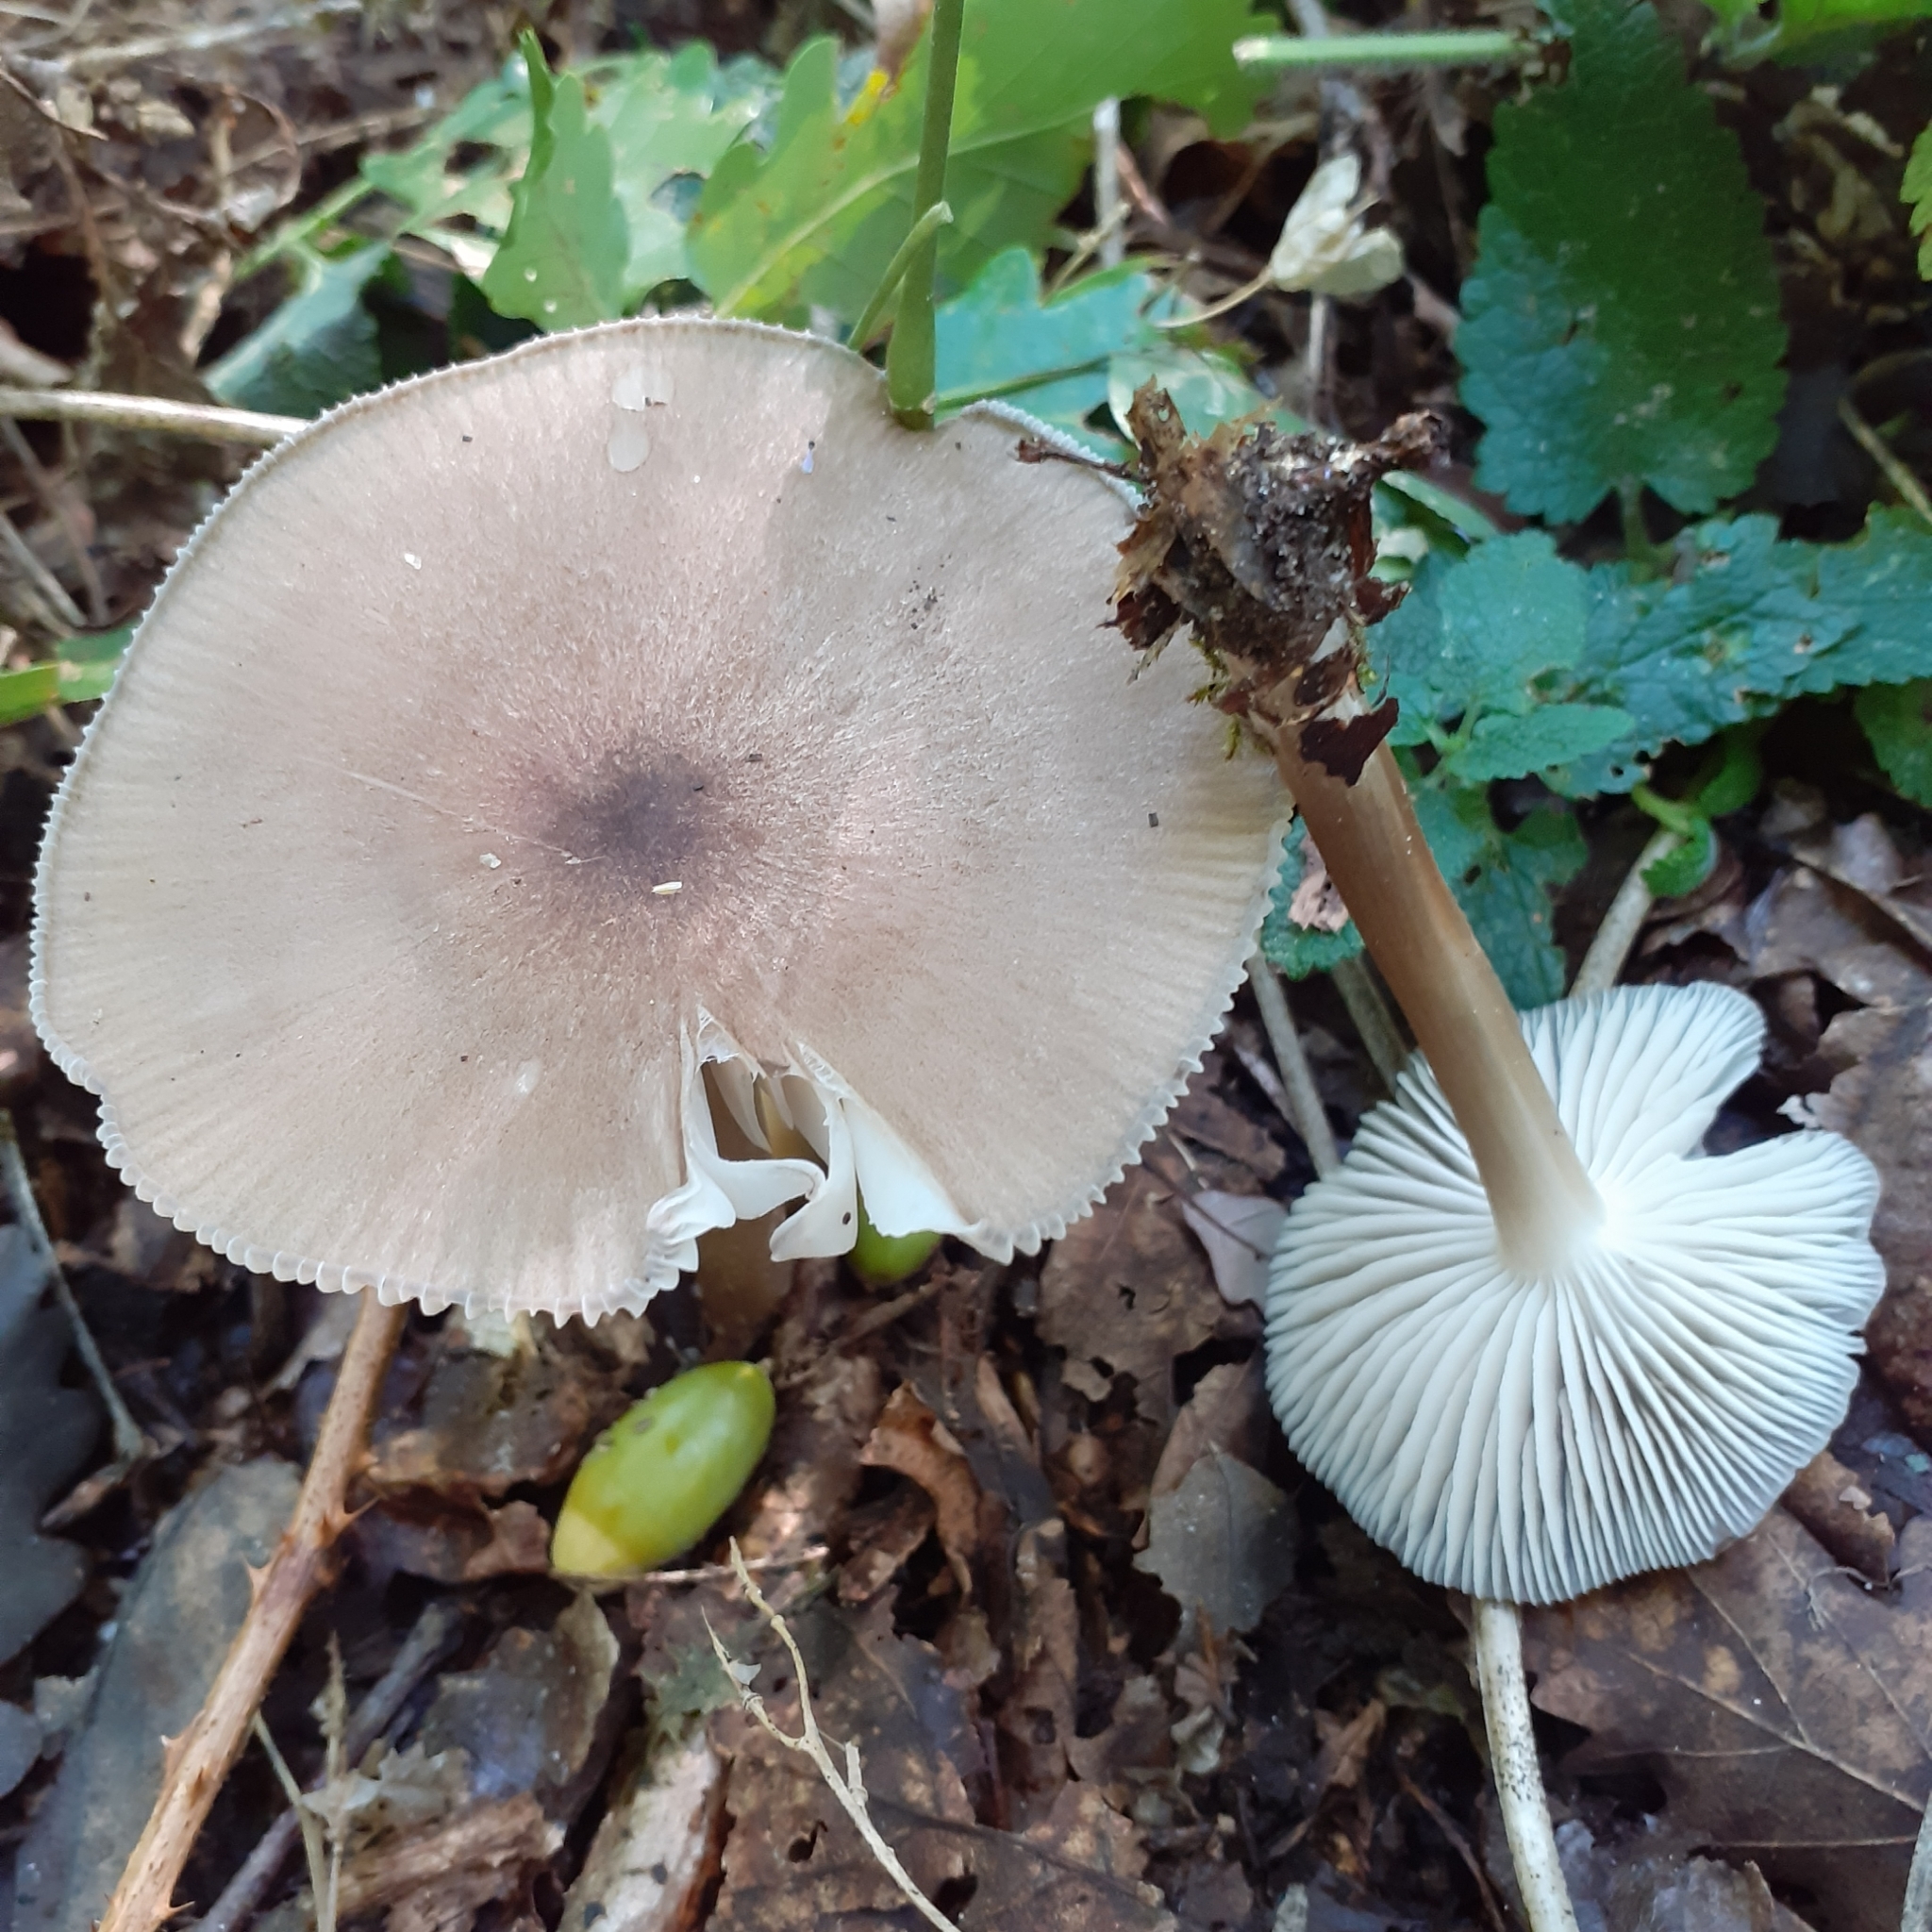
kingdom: Fungi
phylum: Basidiomycota
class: Agaricomycetes
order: Agaricales
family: Tricholomataceae
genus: Megacollybia
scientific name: Megacollybia platyphylla
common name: Whitelaced shank
